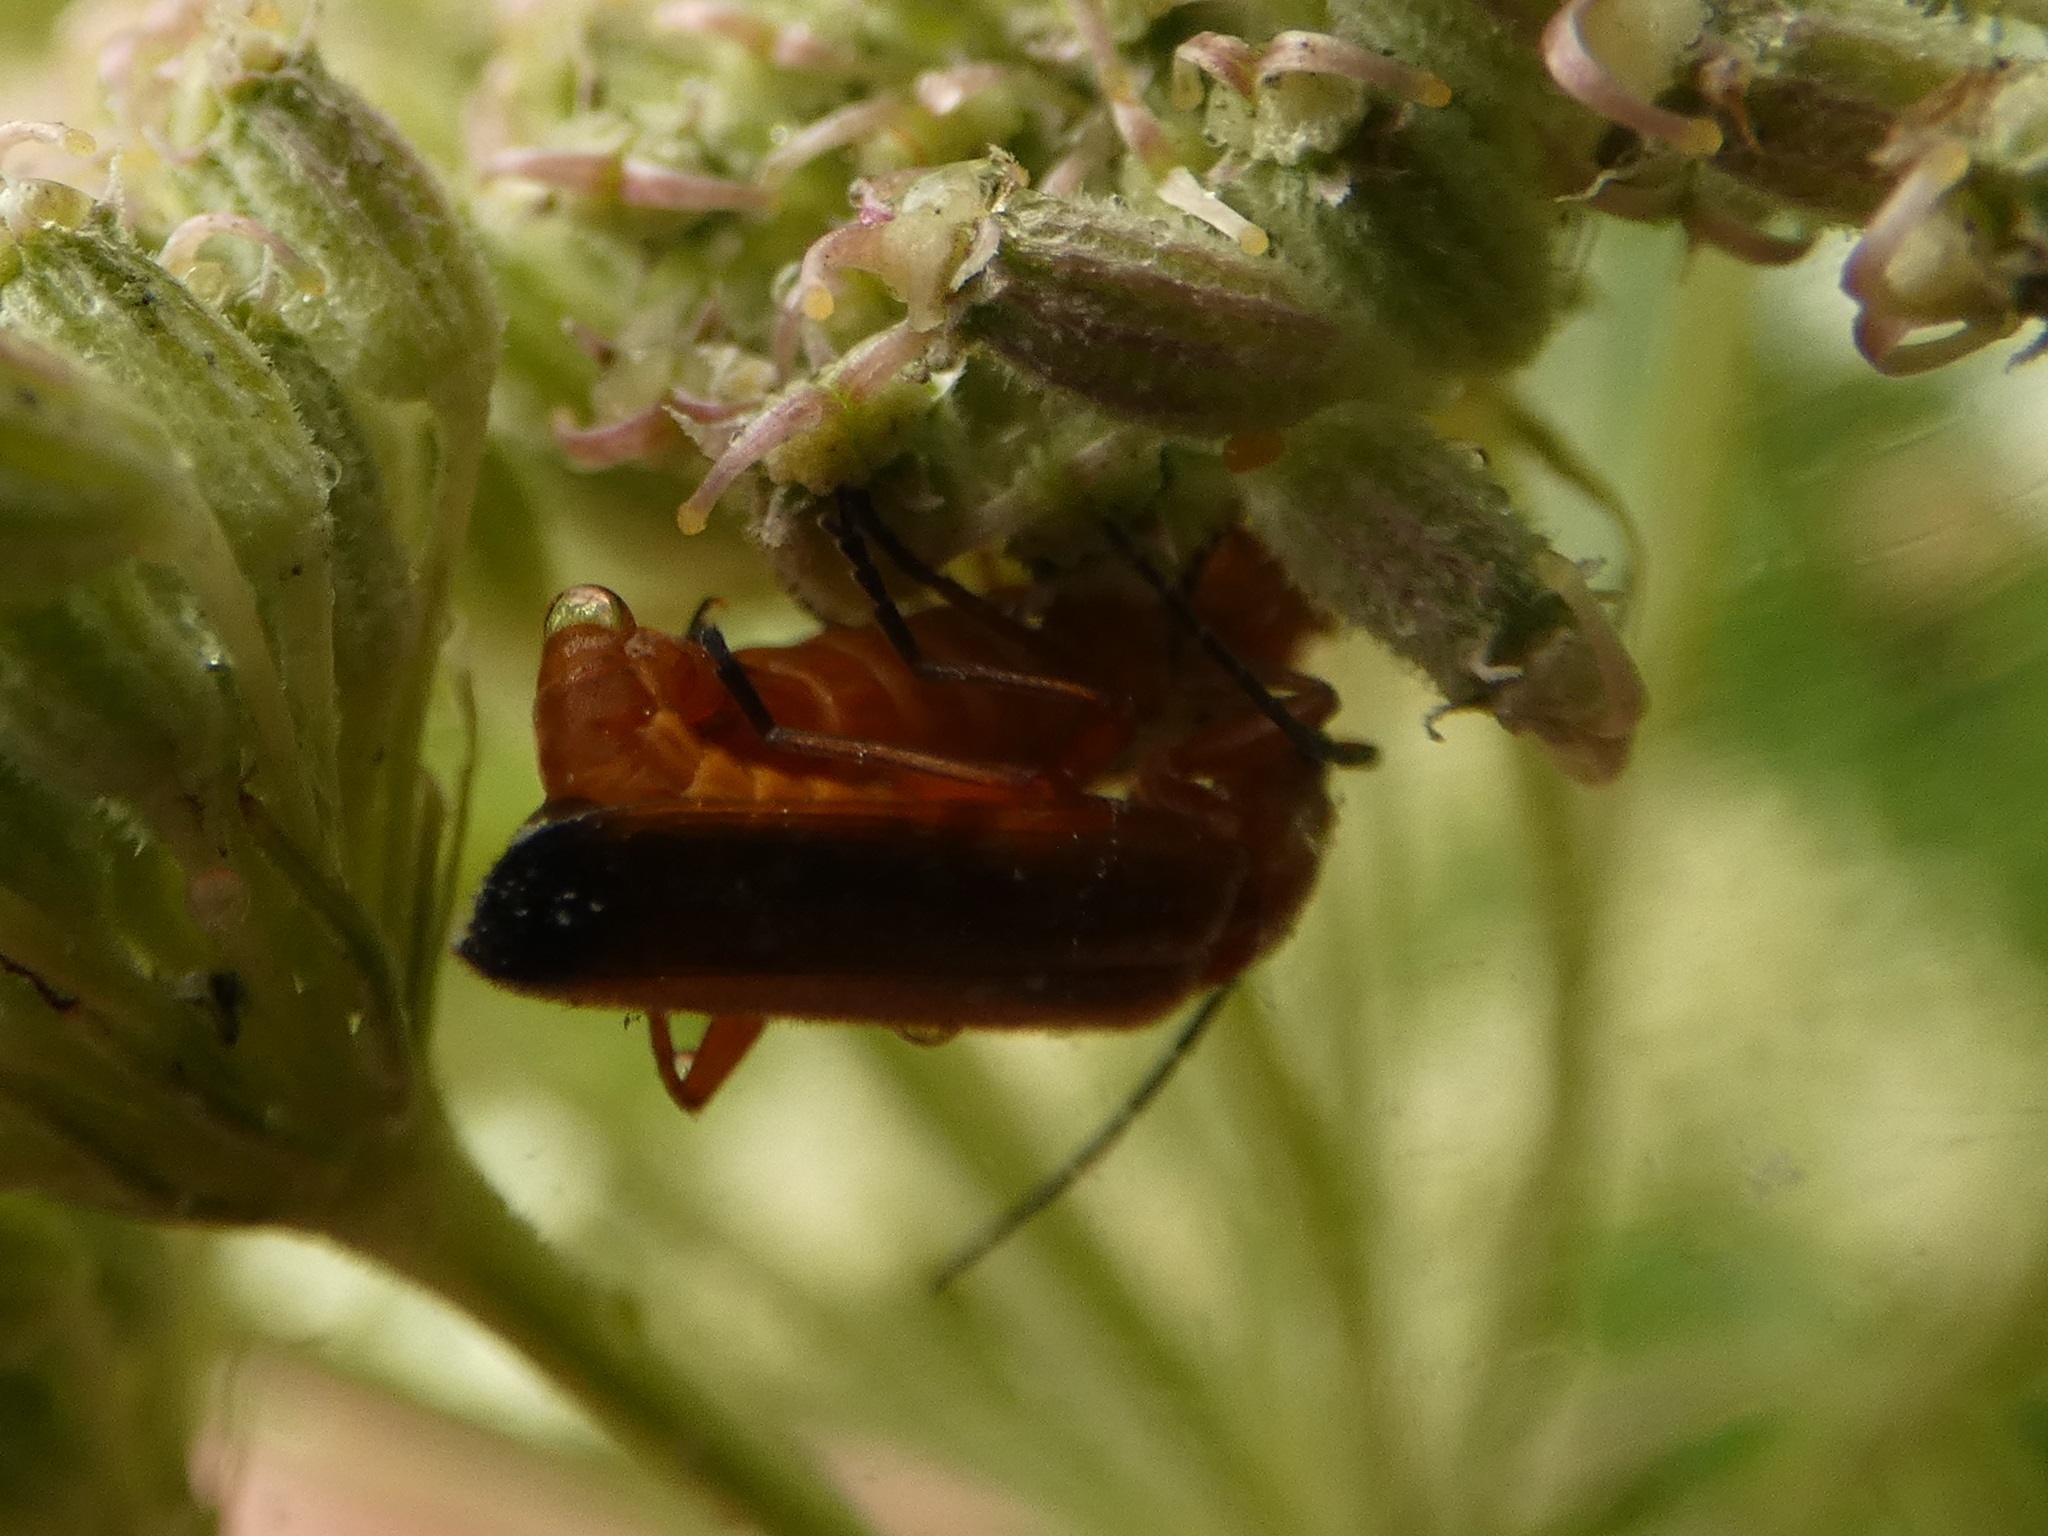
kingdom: Animalia
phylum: Arthropoda
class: Insecta
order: Coleoptera
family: Cantharidae
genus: Rhagonycha
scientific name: Rhagonycha fulva
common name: Common red soldier beetle
